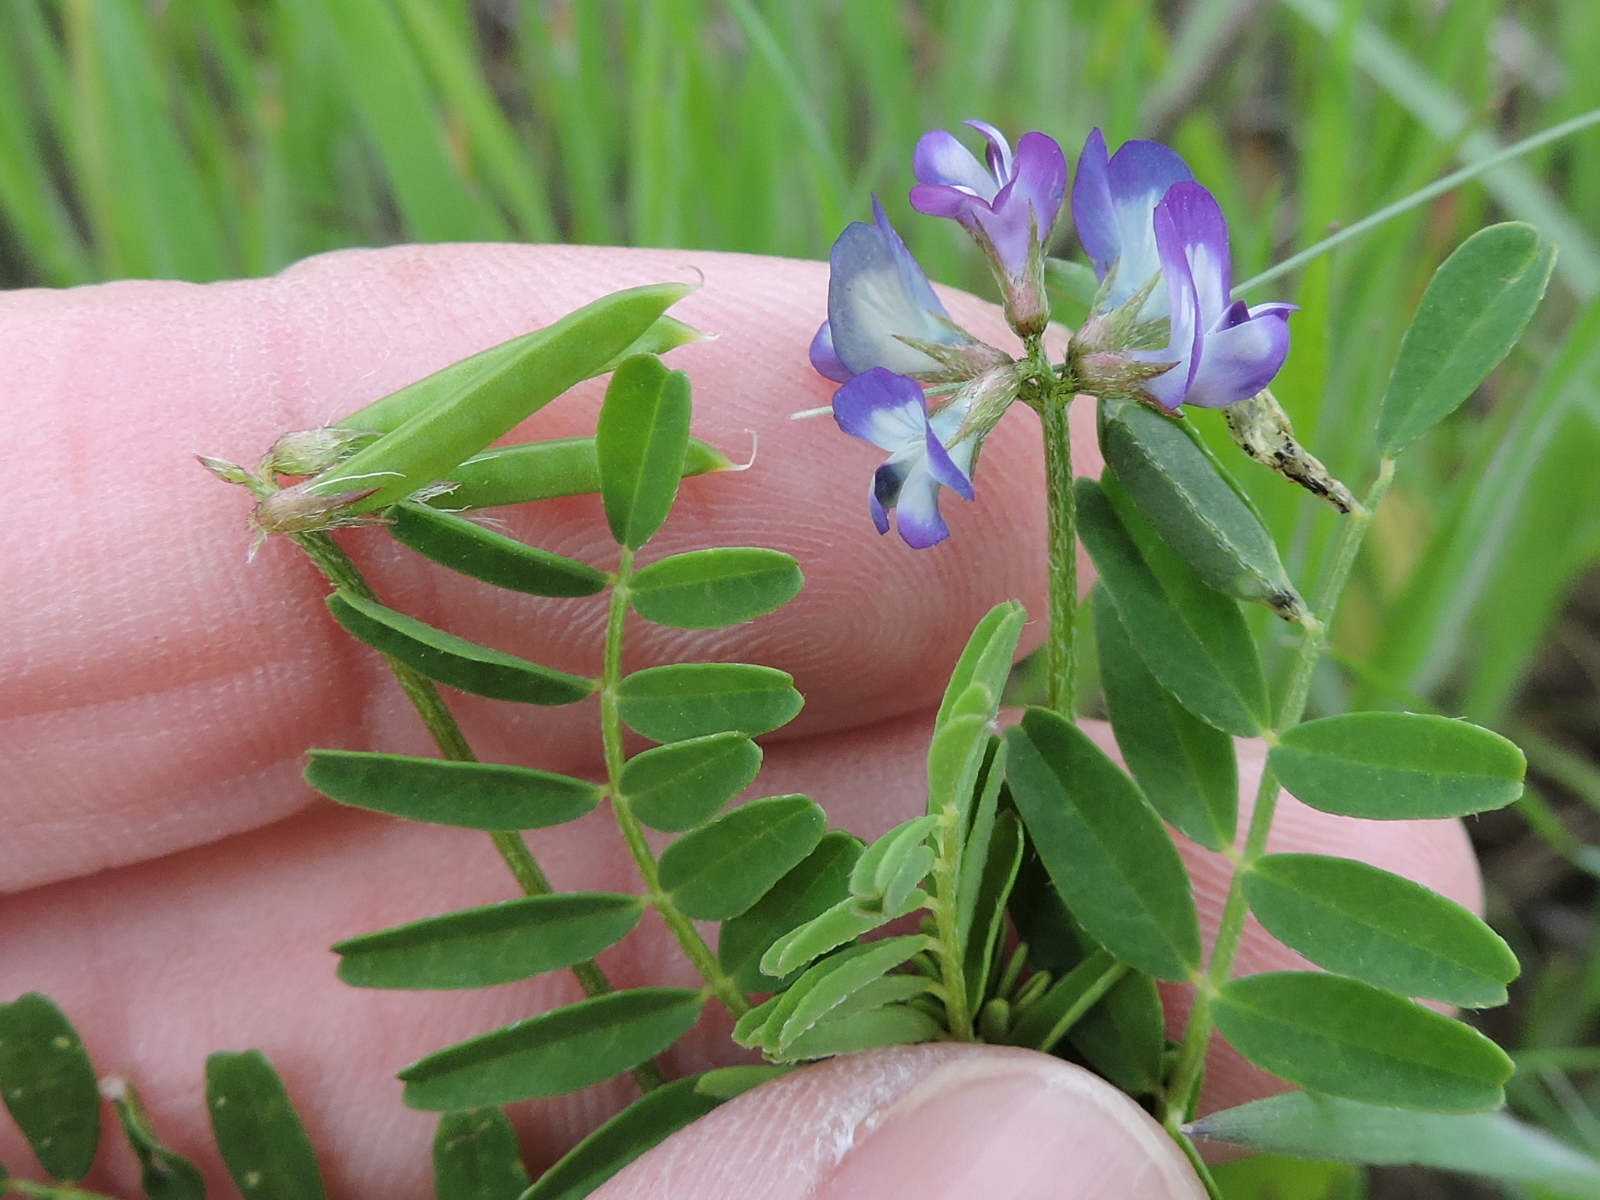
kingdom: Plantae
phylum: Tracheophyta
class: Magnoliopsida
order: Fabales
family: Fabaceae
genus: Astragalus
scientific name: Astragalus leptocarpus
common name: Bodkin milk-vetch
